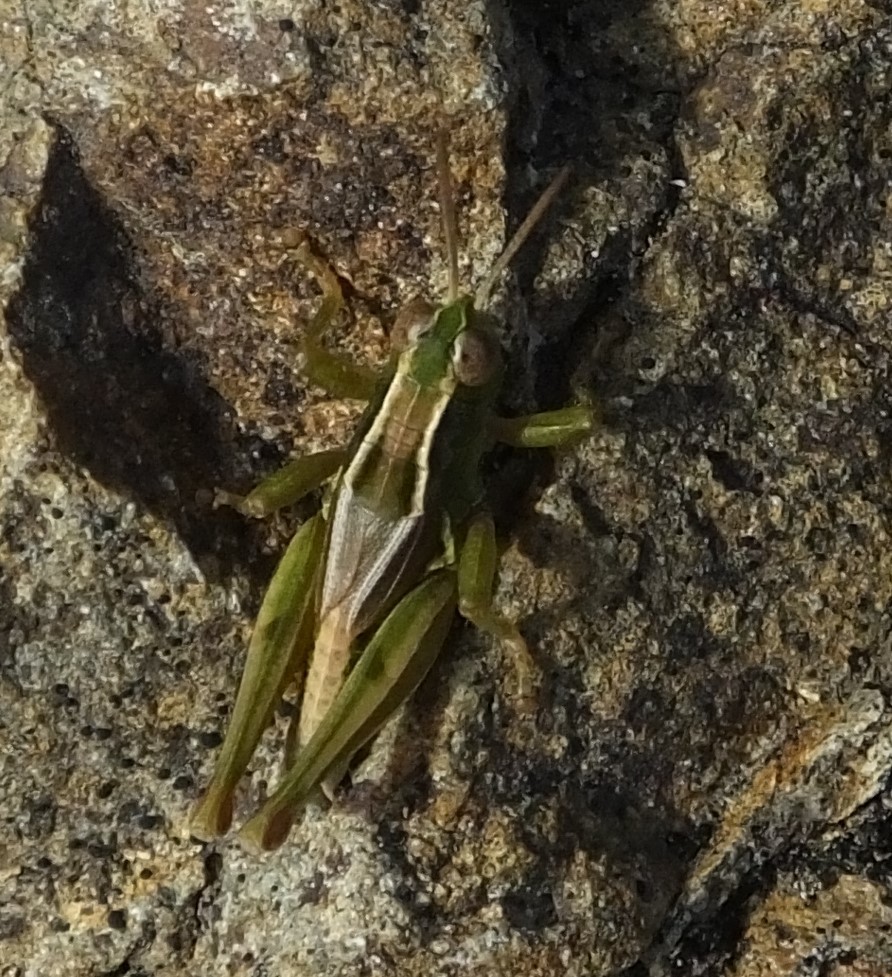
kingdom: Animalia
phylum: Arthropoda
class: Insecta
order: Orthoptera
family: Acrididae
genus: Phaulacridium
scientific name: Phaulacridium marginale
